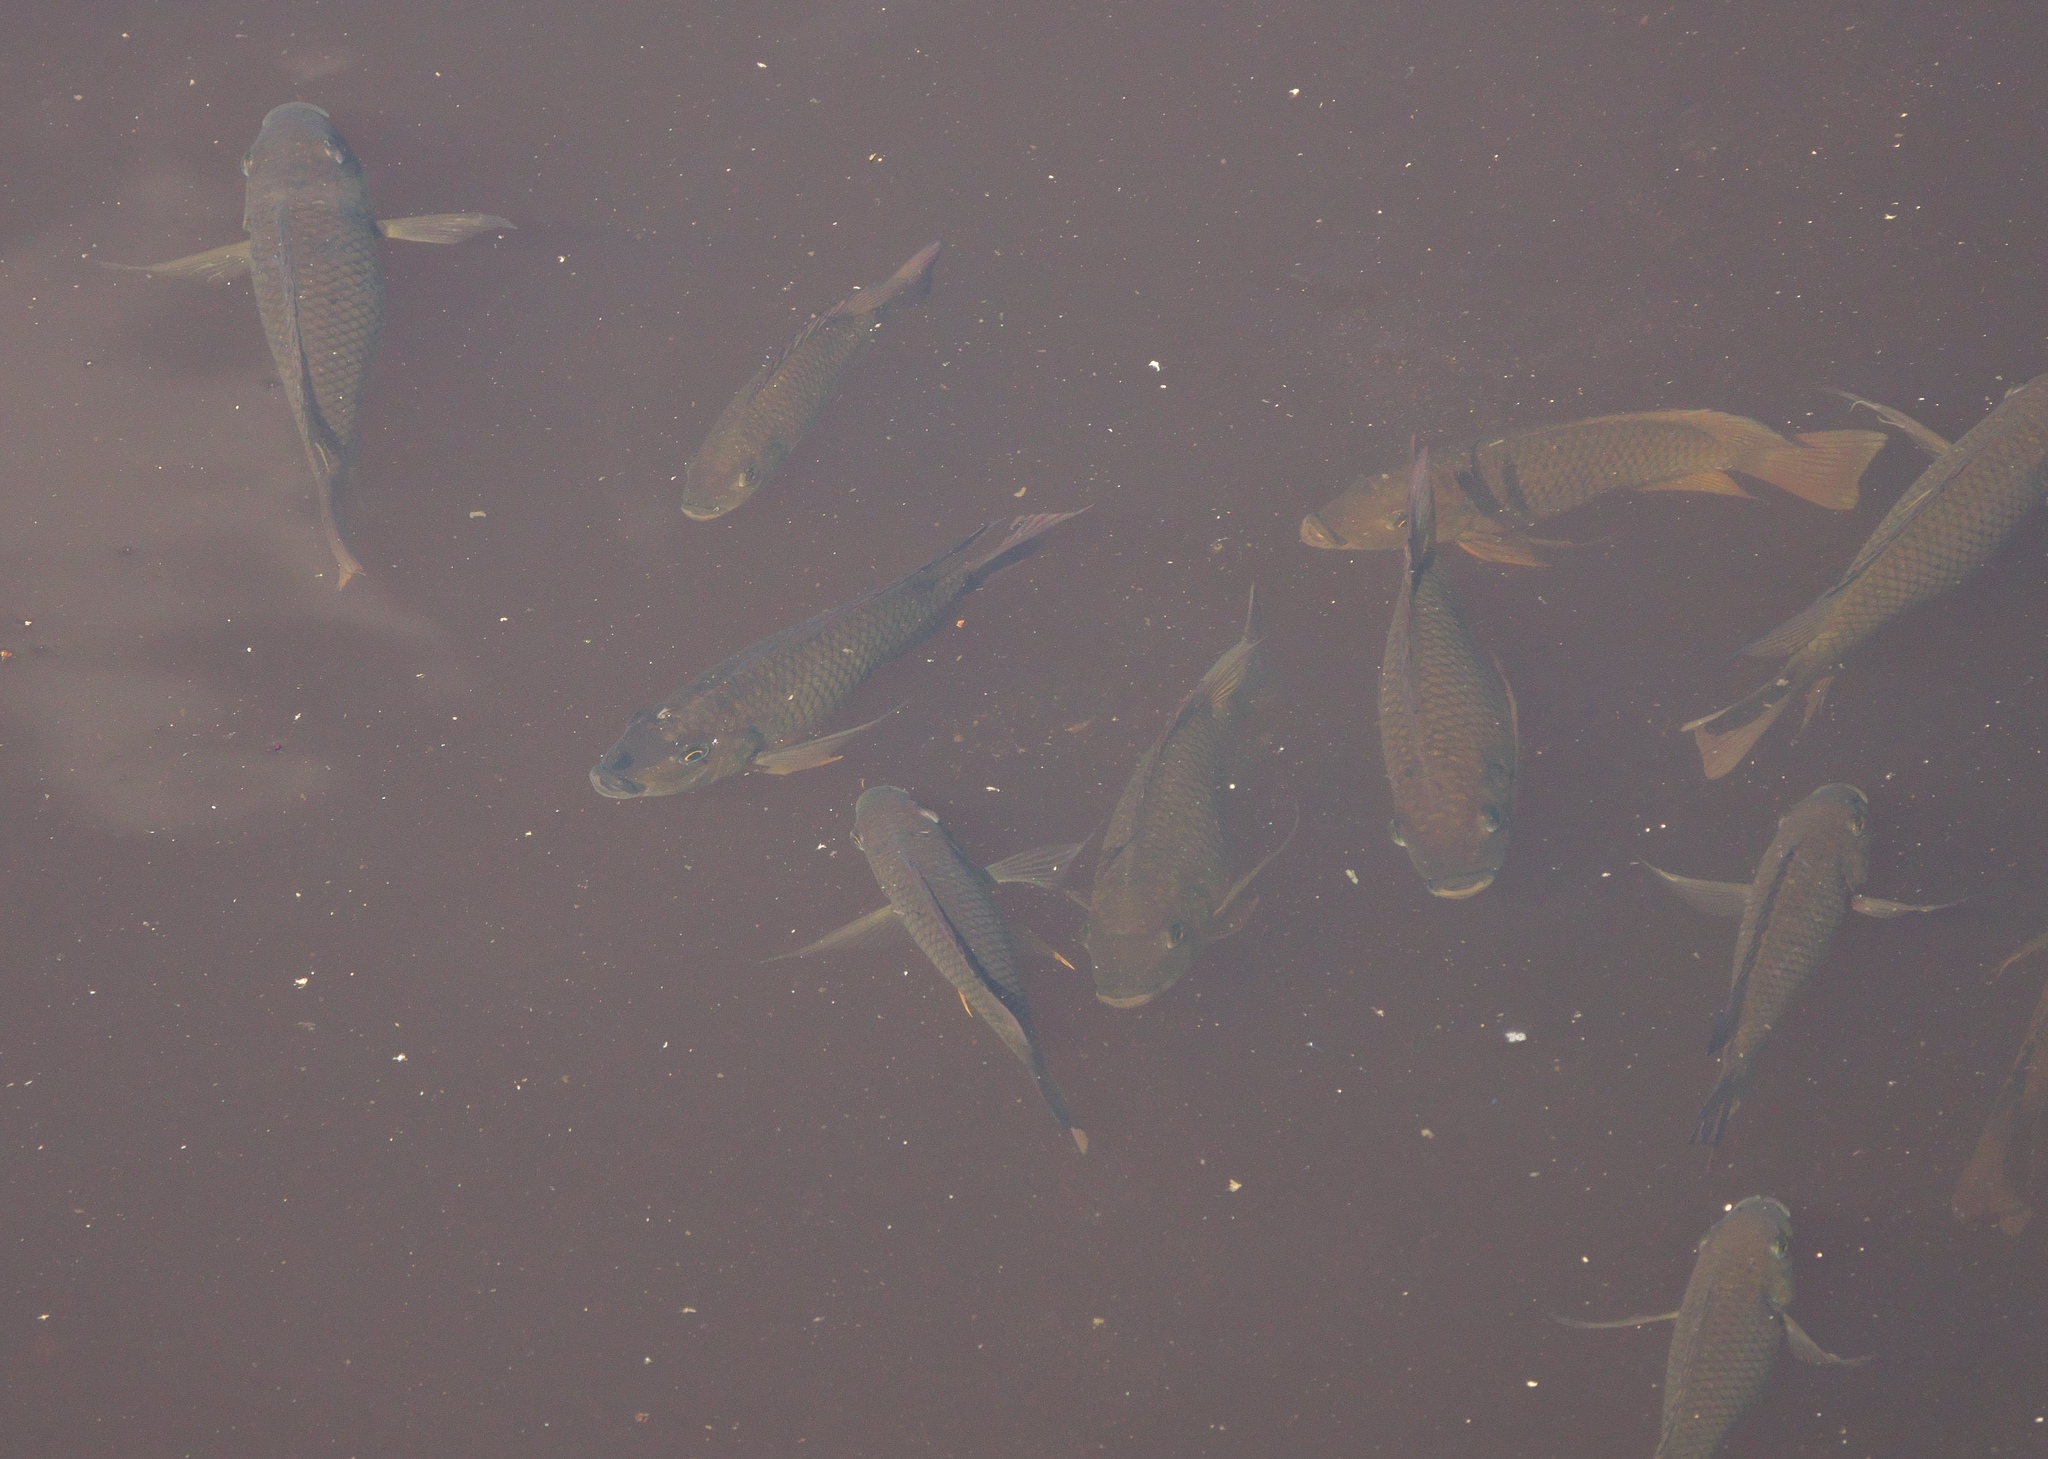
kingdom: Animalia
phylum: Chordata
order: Perciformes
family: Cichlidae
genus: Sarotherodon
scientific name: Sarotherodon melanotheron
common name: Blackchin tilapia
